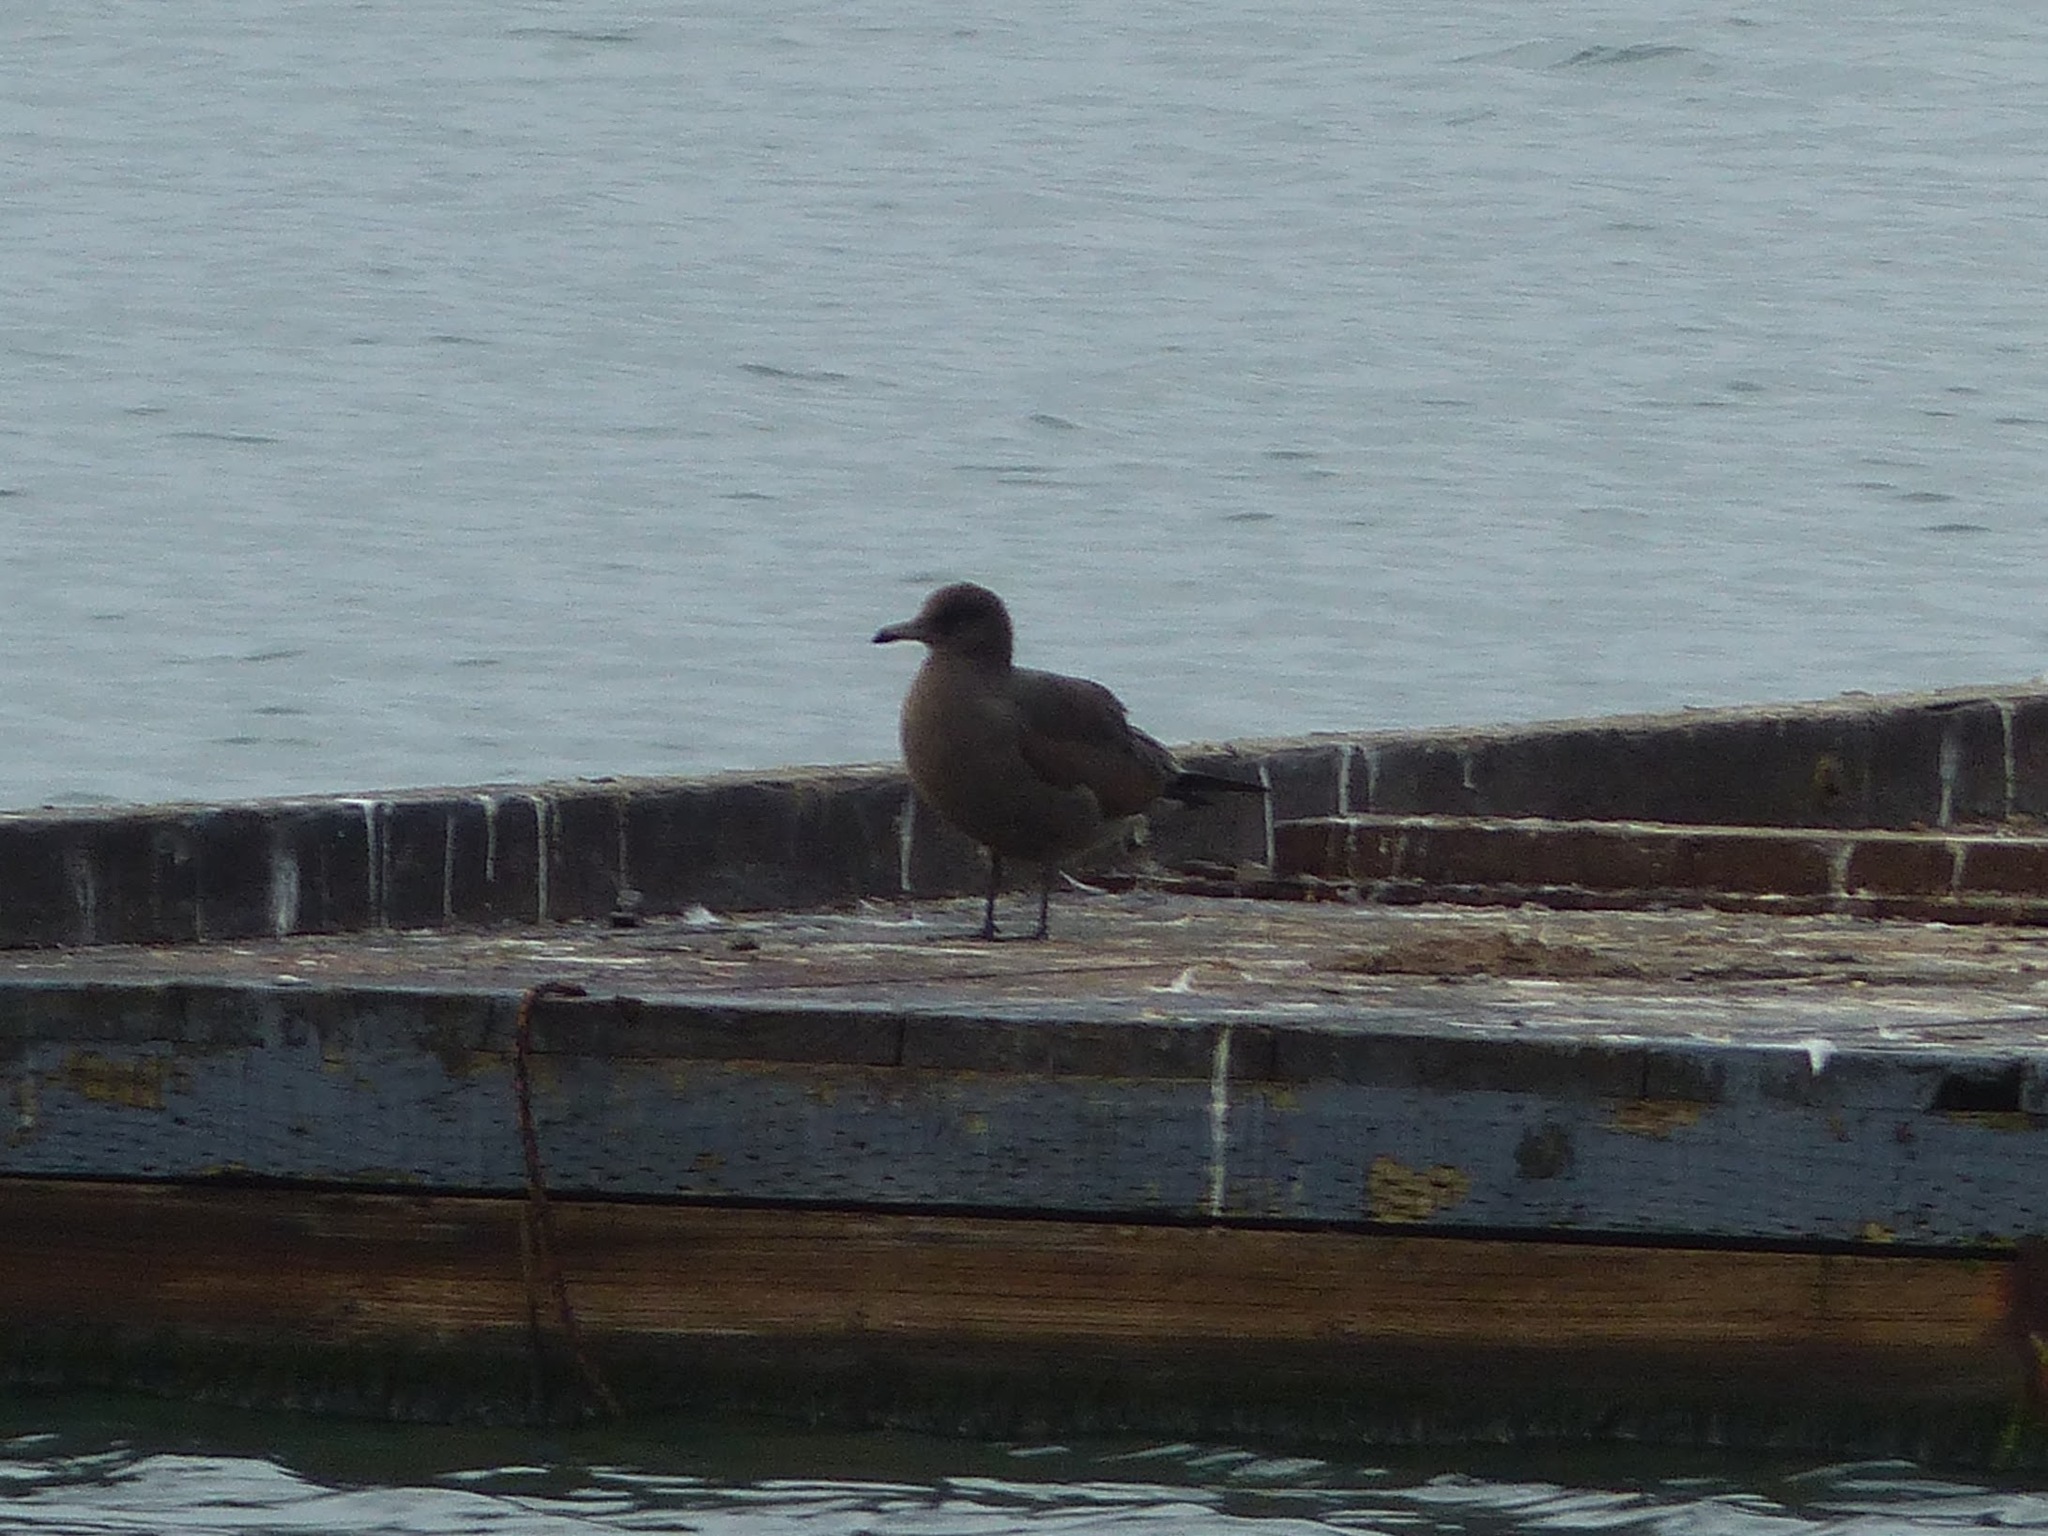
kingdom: Animalia
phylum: Chordata
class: Aves
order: Charadriiformes
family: Laridae
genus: Larus
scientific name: Larus heermanni
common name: Heermann's gull
